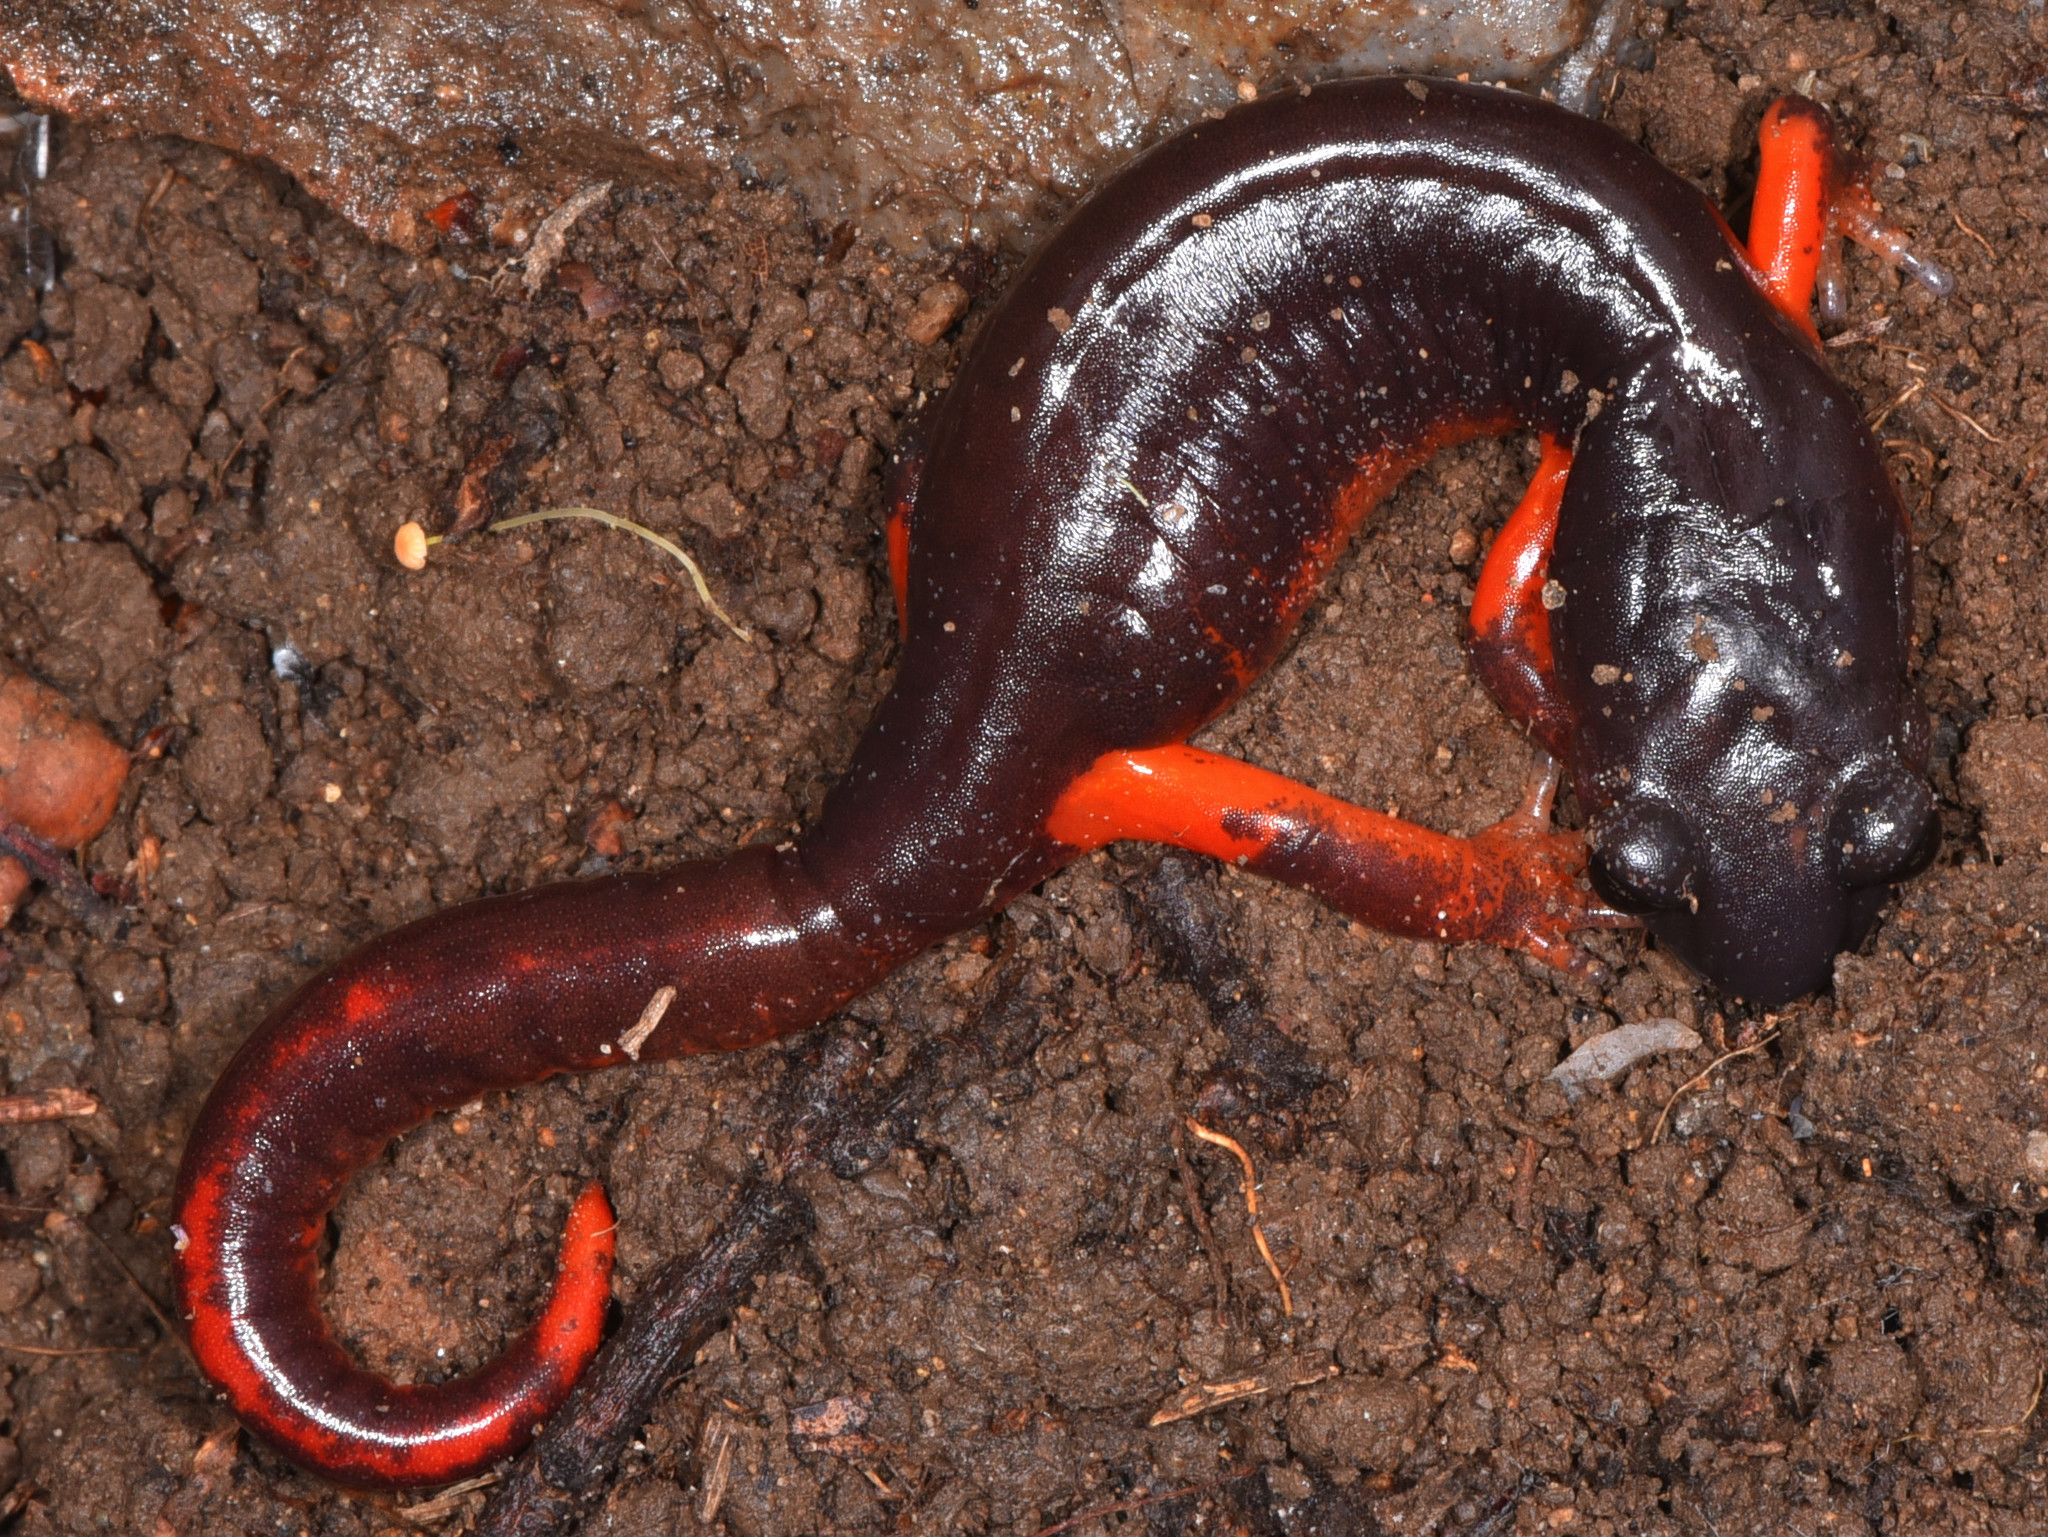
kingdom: Animalia
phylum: Chordata
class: Amphibia
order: Caudata
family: Plethodontidae
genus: Ensatina
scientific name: Ensatina eschscholtzii
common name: Ensatina
